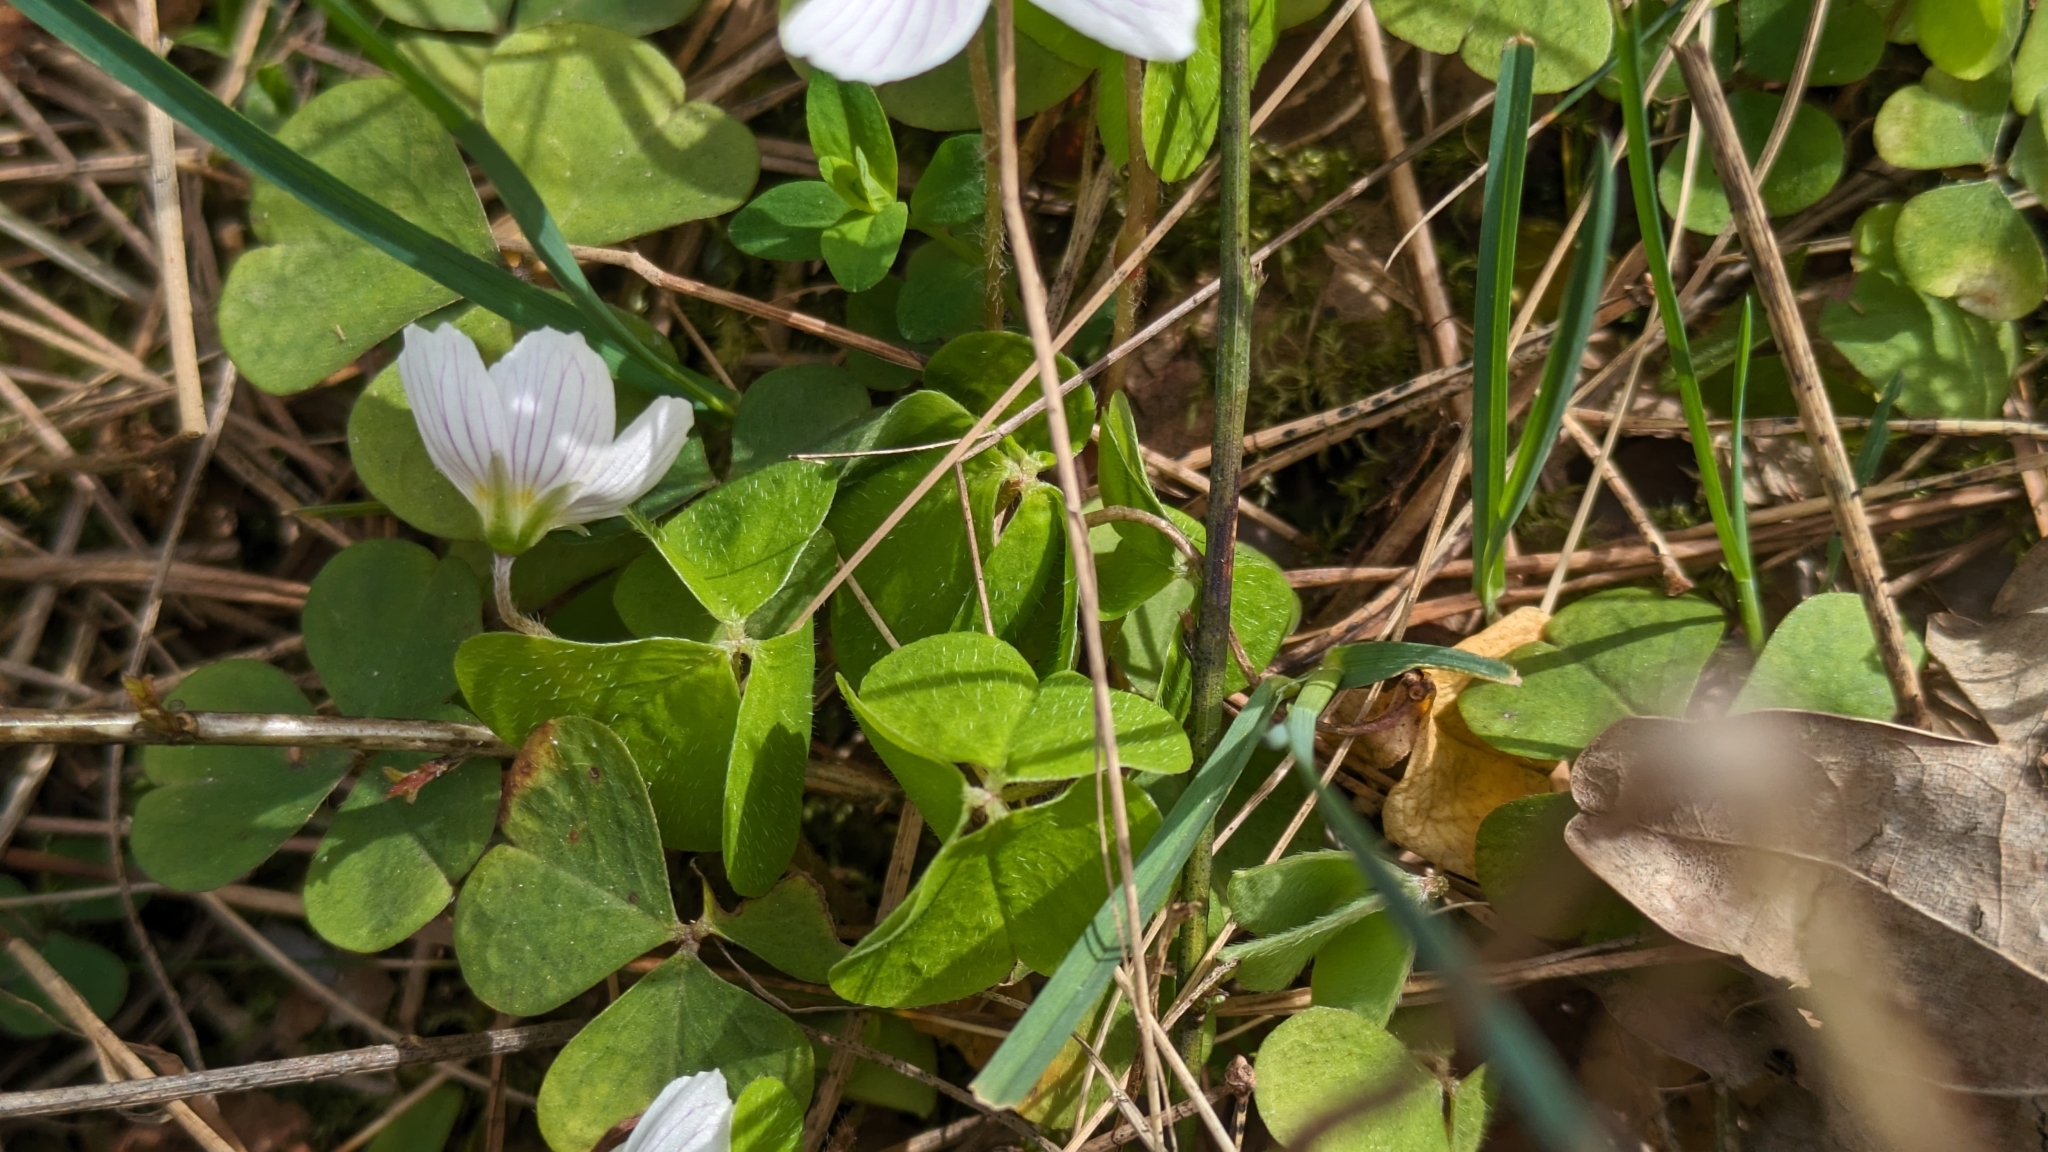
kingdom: Plantae
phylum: Tracheophyta
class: Magnoliopsida
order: Oxalidales
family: Oxalidaceae
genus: Oxalis
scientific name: Oxalis acetosella
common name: Wood-sorrel
